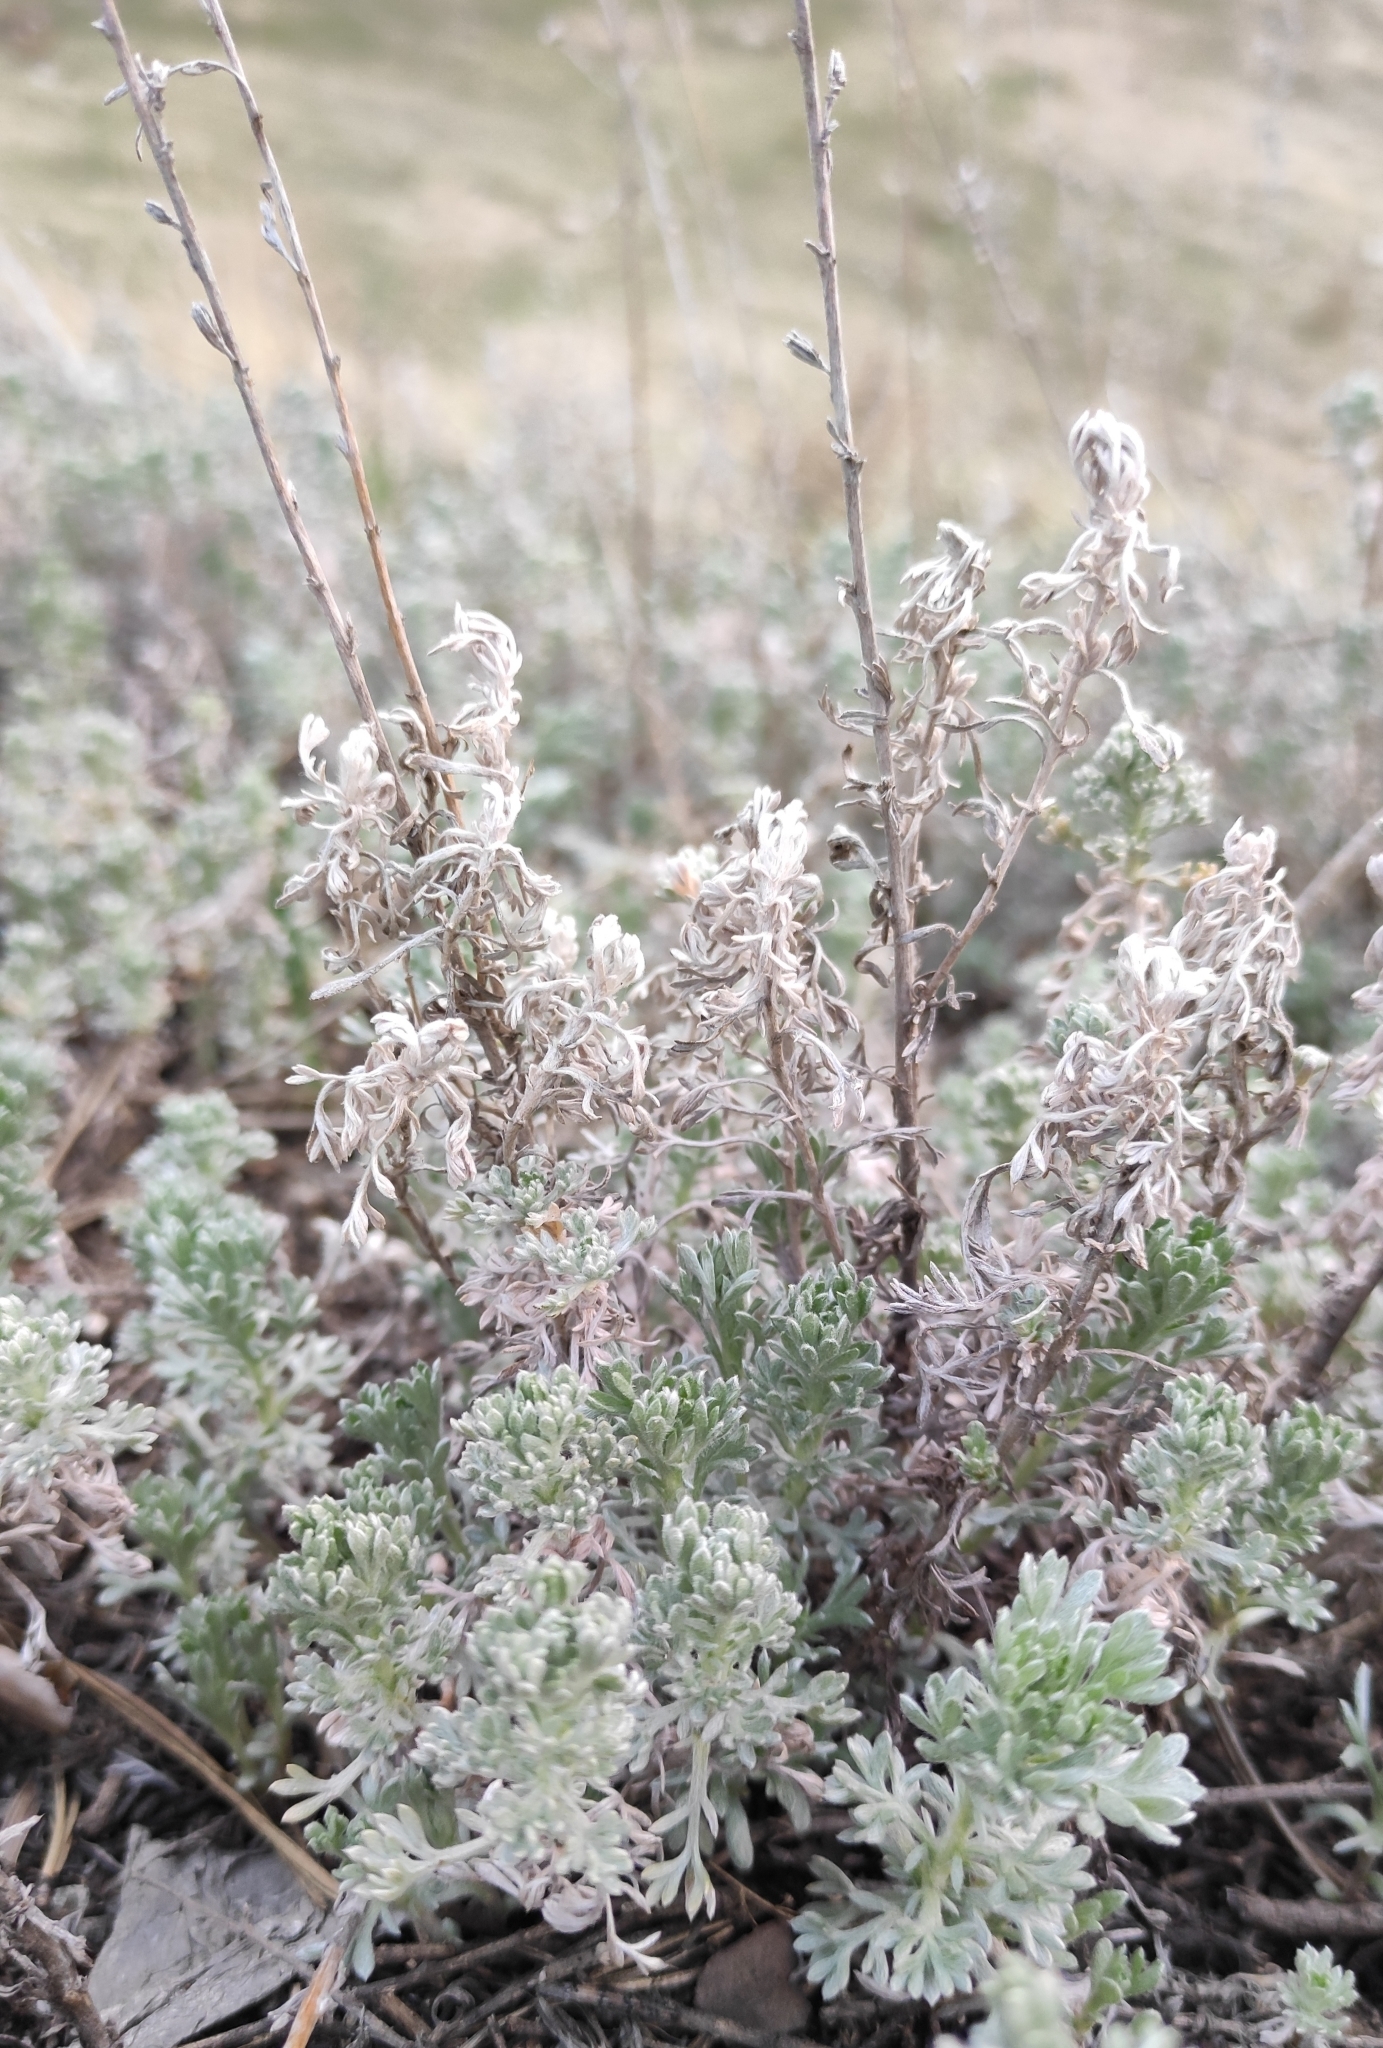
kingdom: Plantae
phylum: Tracheophyta
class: Magnoliopsida
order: Asterales
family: Asteraceae
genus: Artemisia
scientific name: Artemisia frigida
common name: Prairie sagewort
